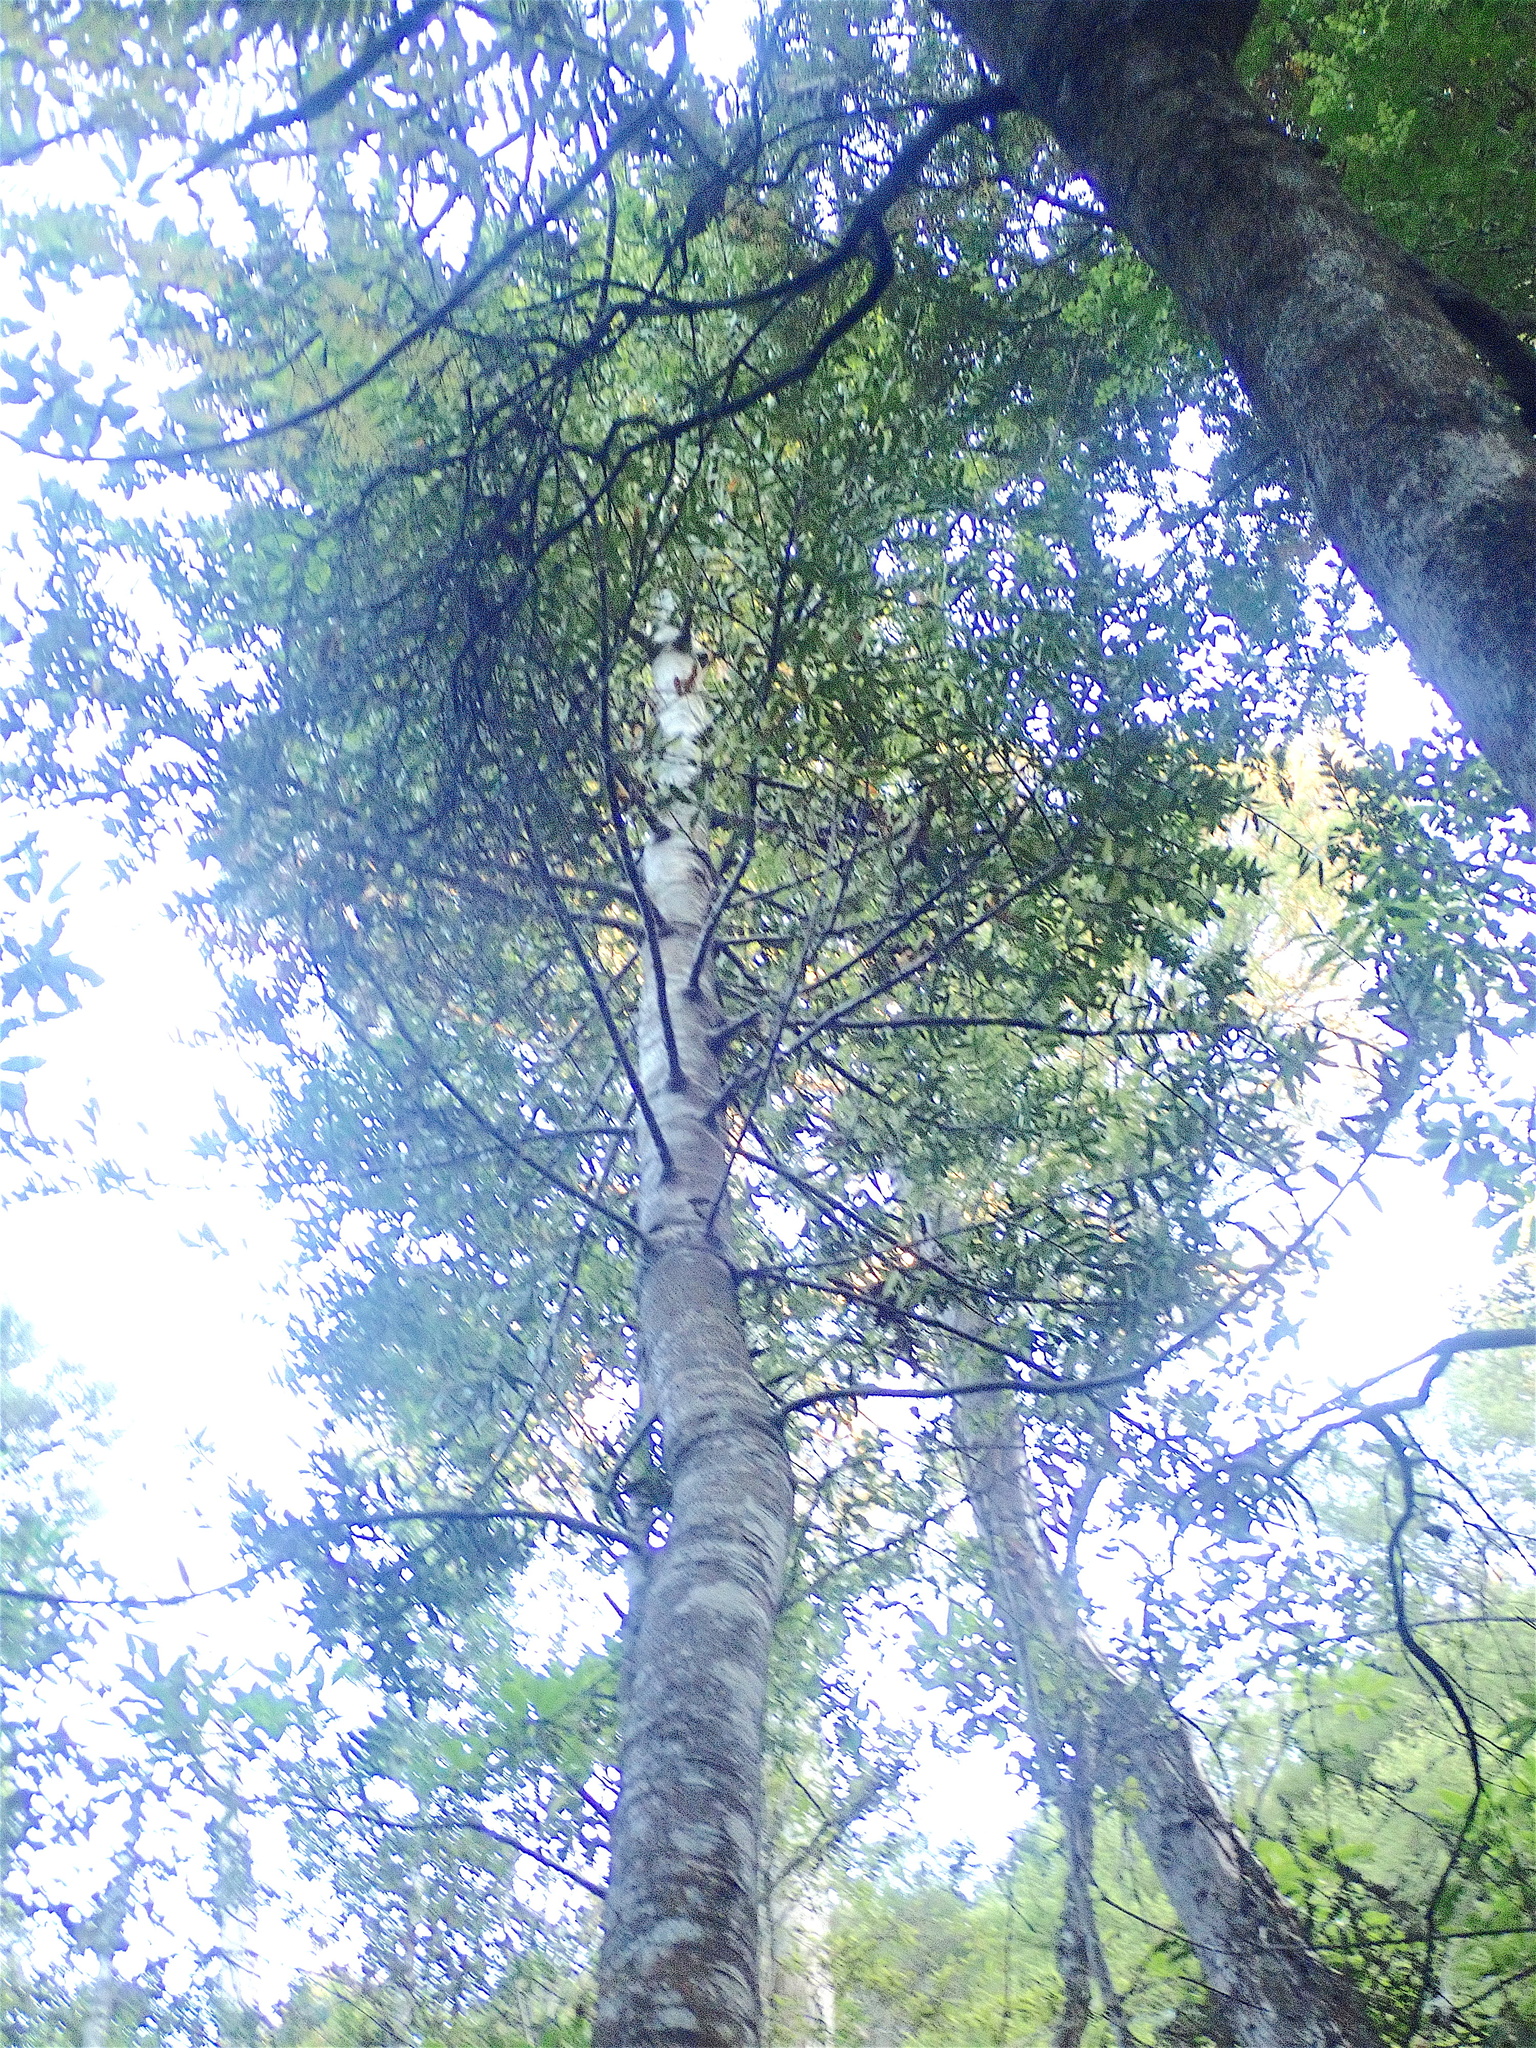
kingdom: Plantae
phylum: Tracheophyta
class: Pinopsida
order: Pinales
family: Araucariaceae
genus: Agathis
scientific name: Agathis australis
